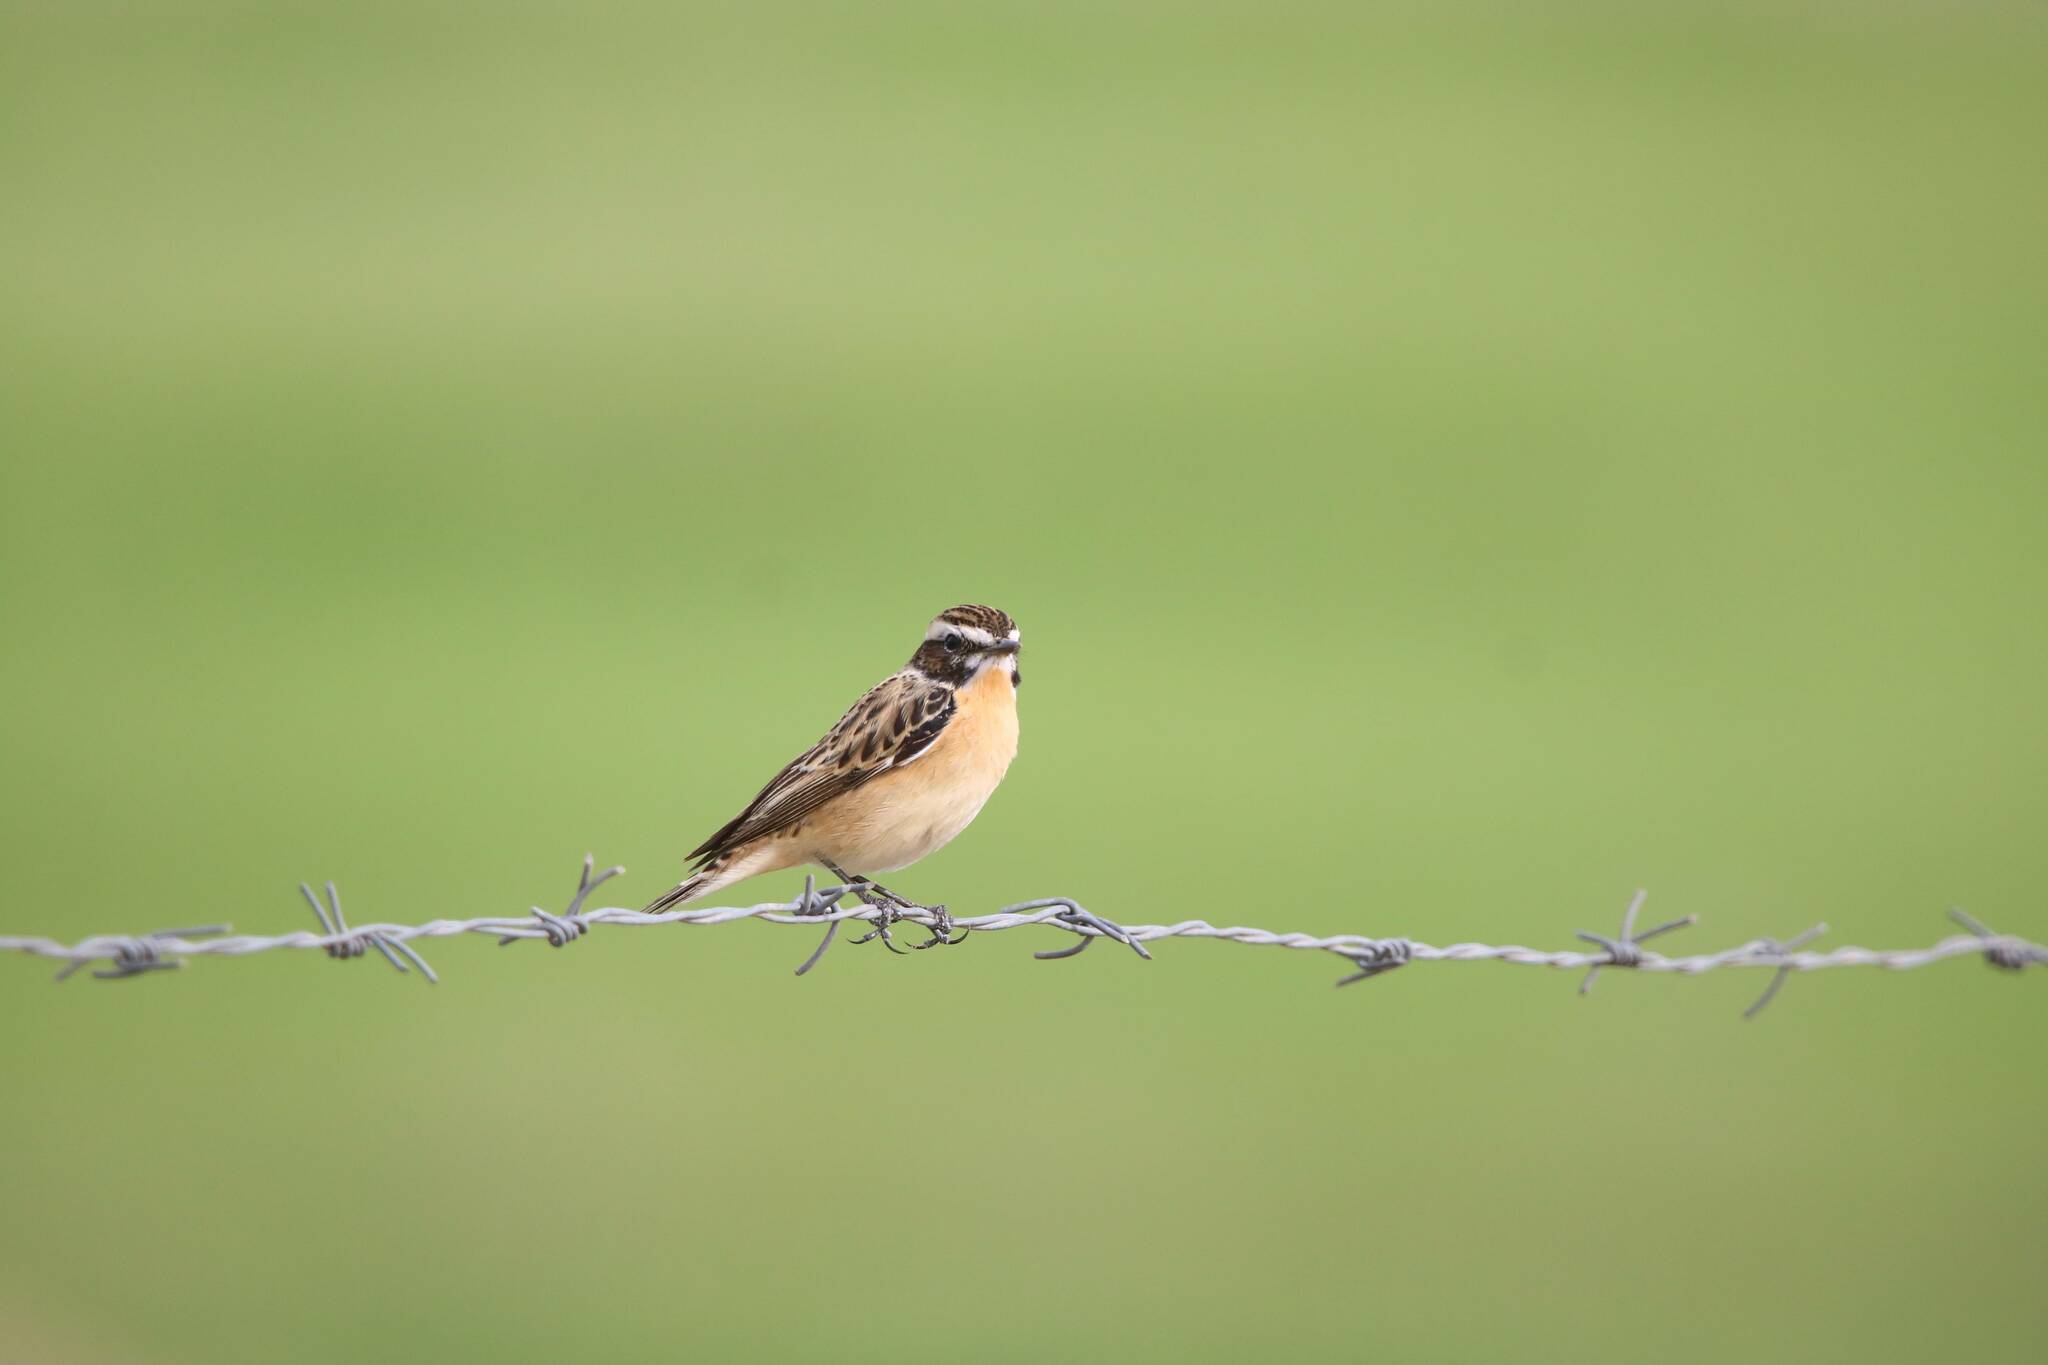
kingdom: Animalia
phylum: Chordata
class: Aves
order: Passeriformes
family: Muscicapidae
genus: Saxicola
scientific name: Saxicola rubetra
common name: Whinchat
